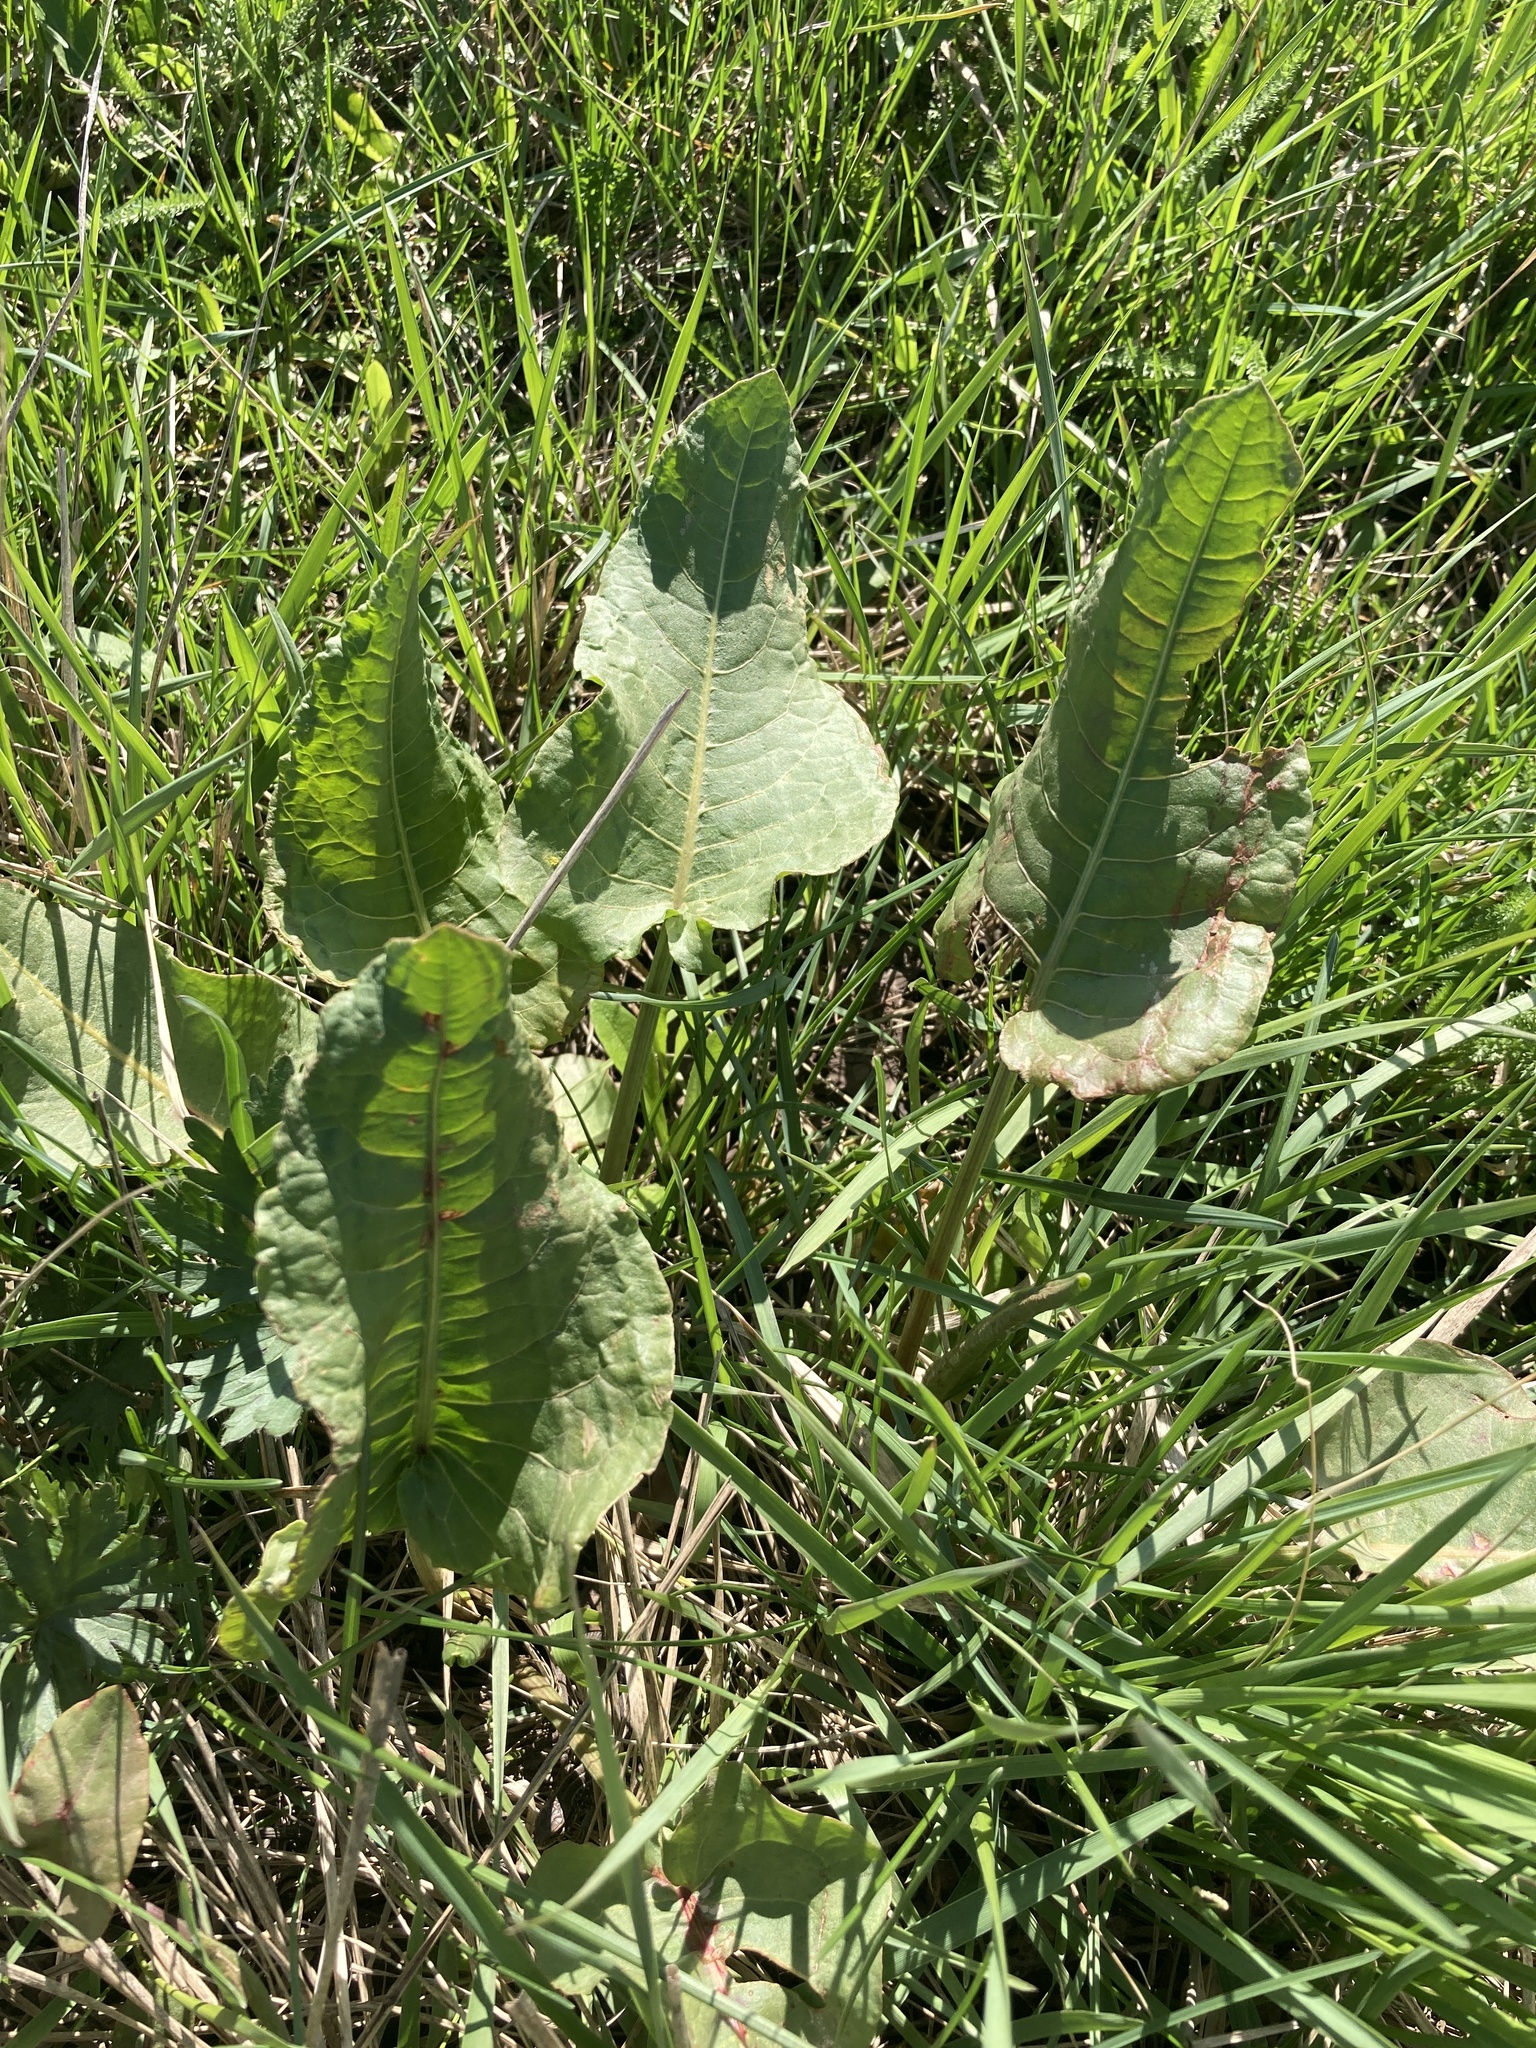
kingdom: Plantae
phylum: Tracheophyta
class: Magnoliopsida
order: Caryophyllales
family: Polygonaceae
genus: Rumex
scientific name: Rumex confertus
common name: Russian dock
